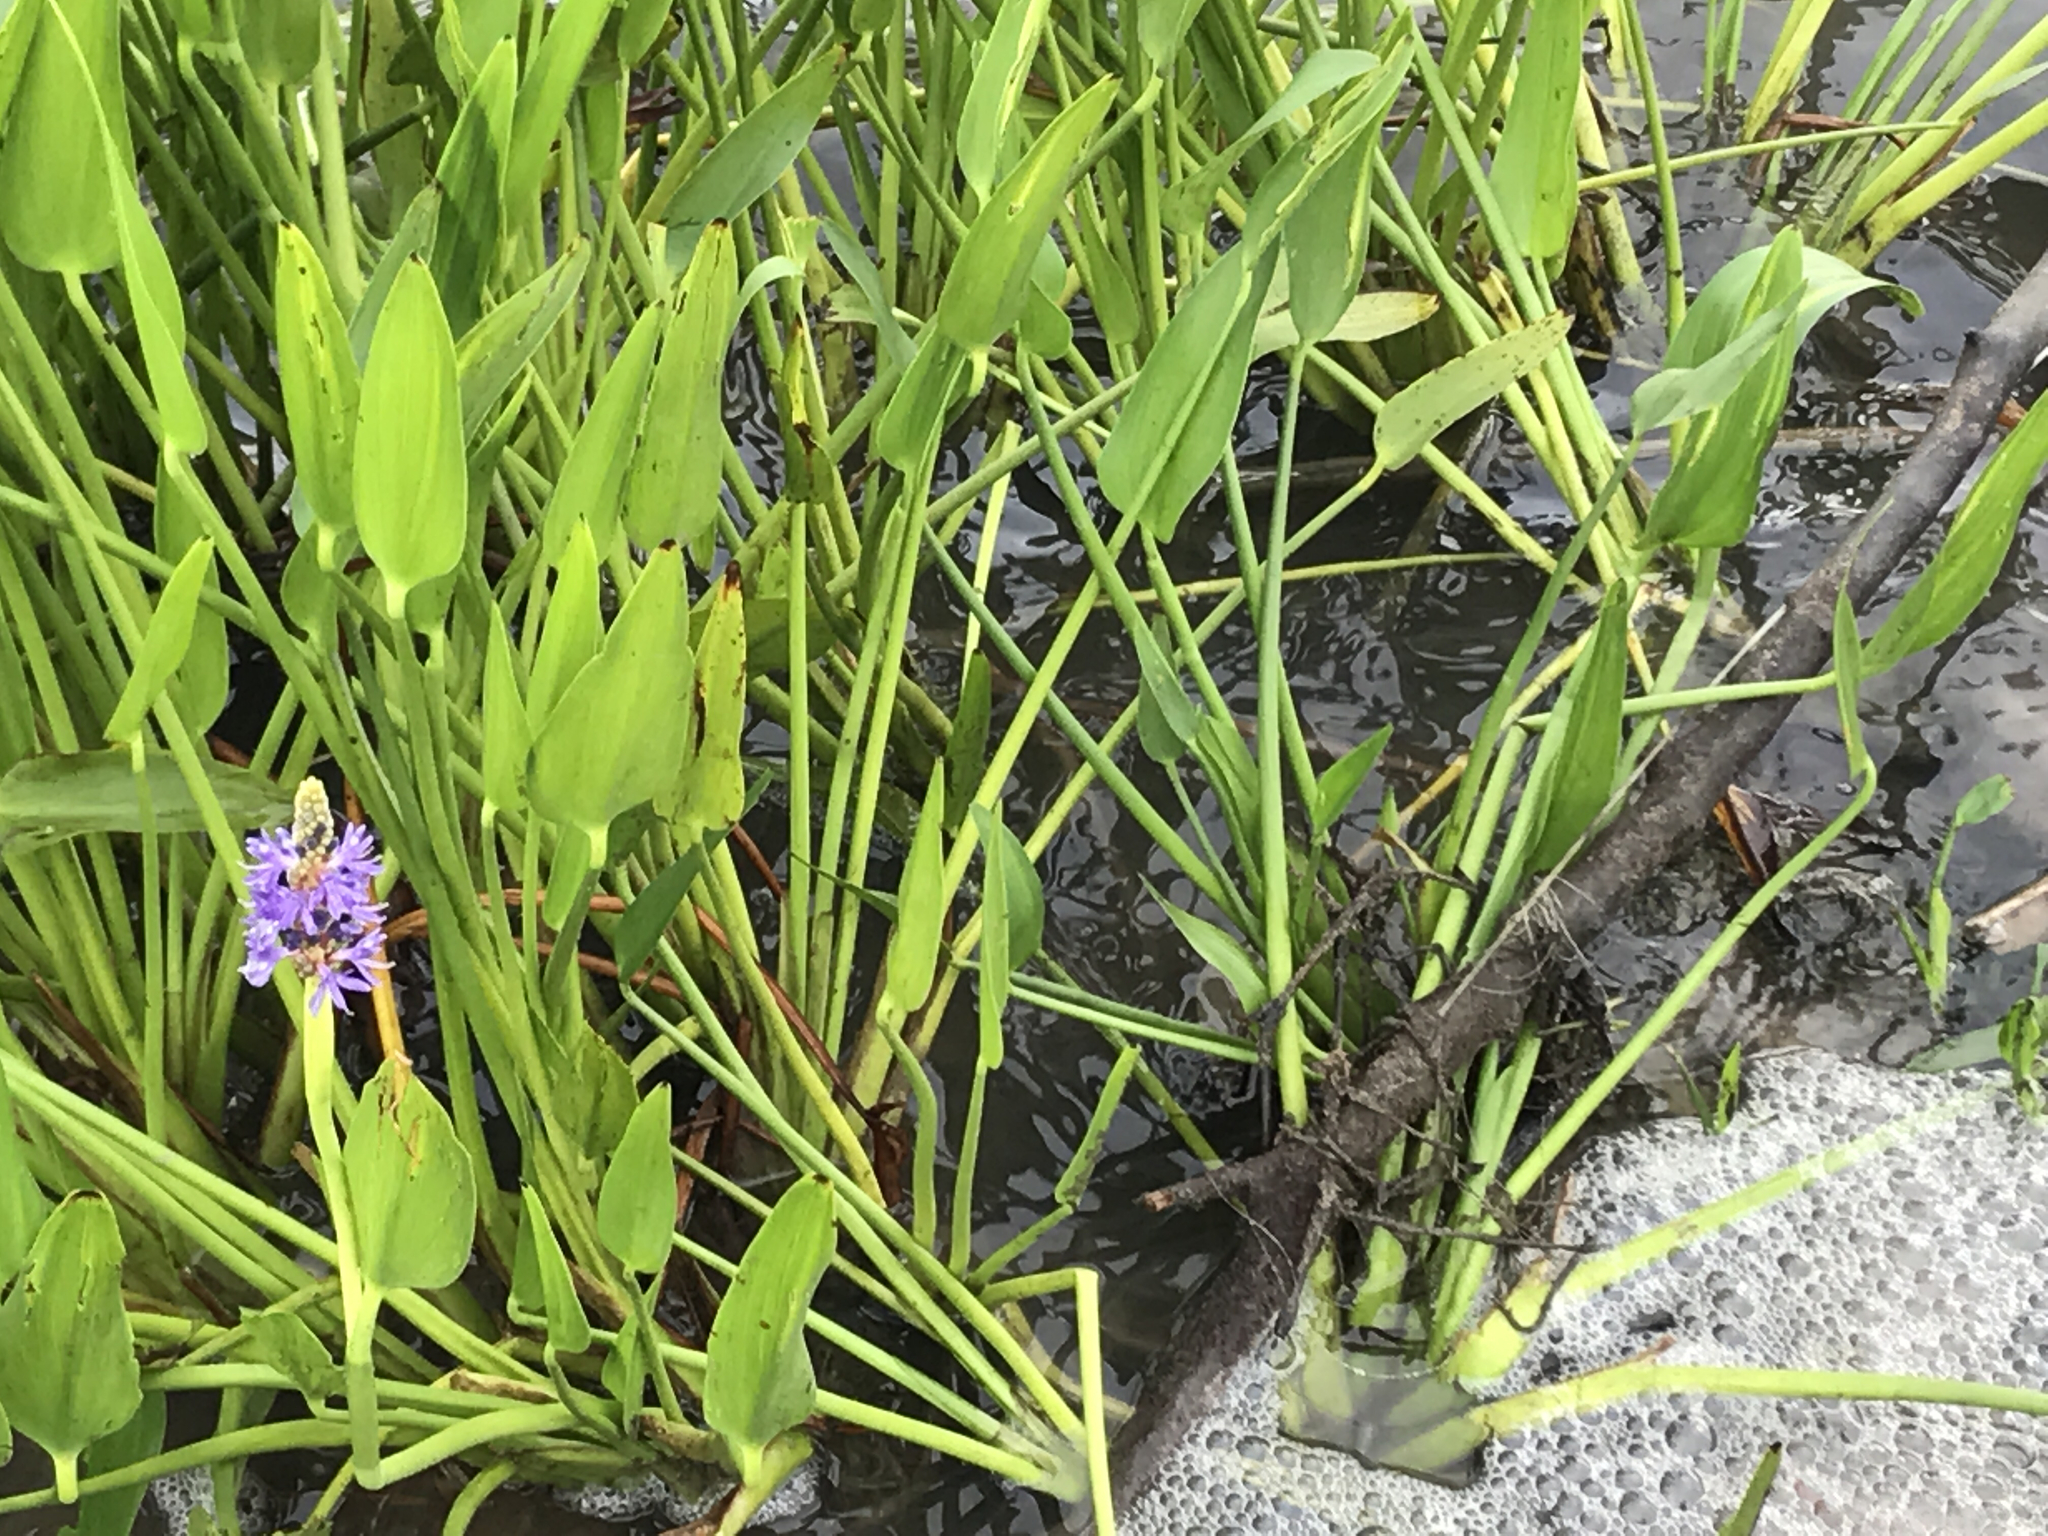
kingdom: Plantae
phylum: Tracheophyta
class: Liliopsida
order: Commelinales
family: Pontederiaceae
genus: Pontederia
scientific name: Pontederia cordata
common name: Pickerelweed
